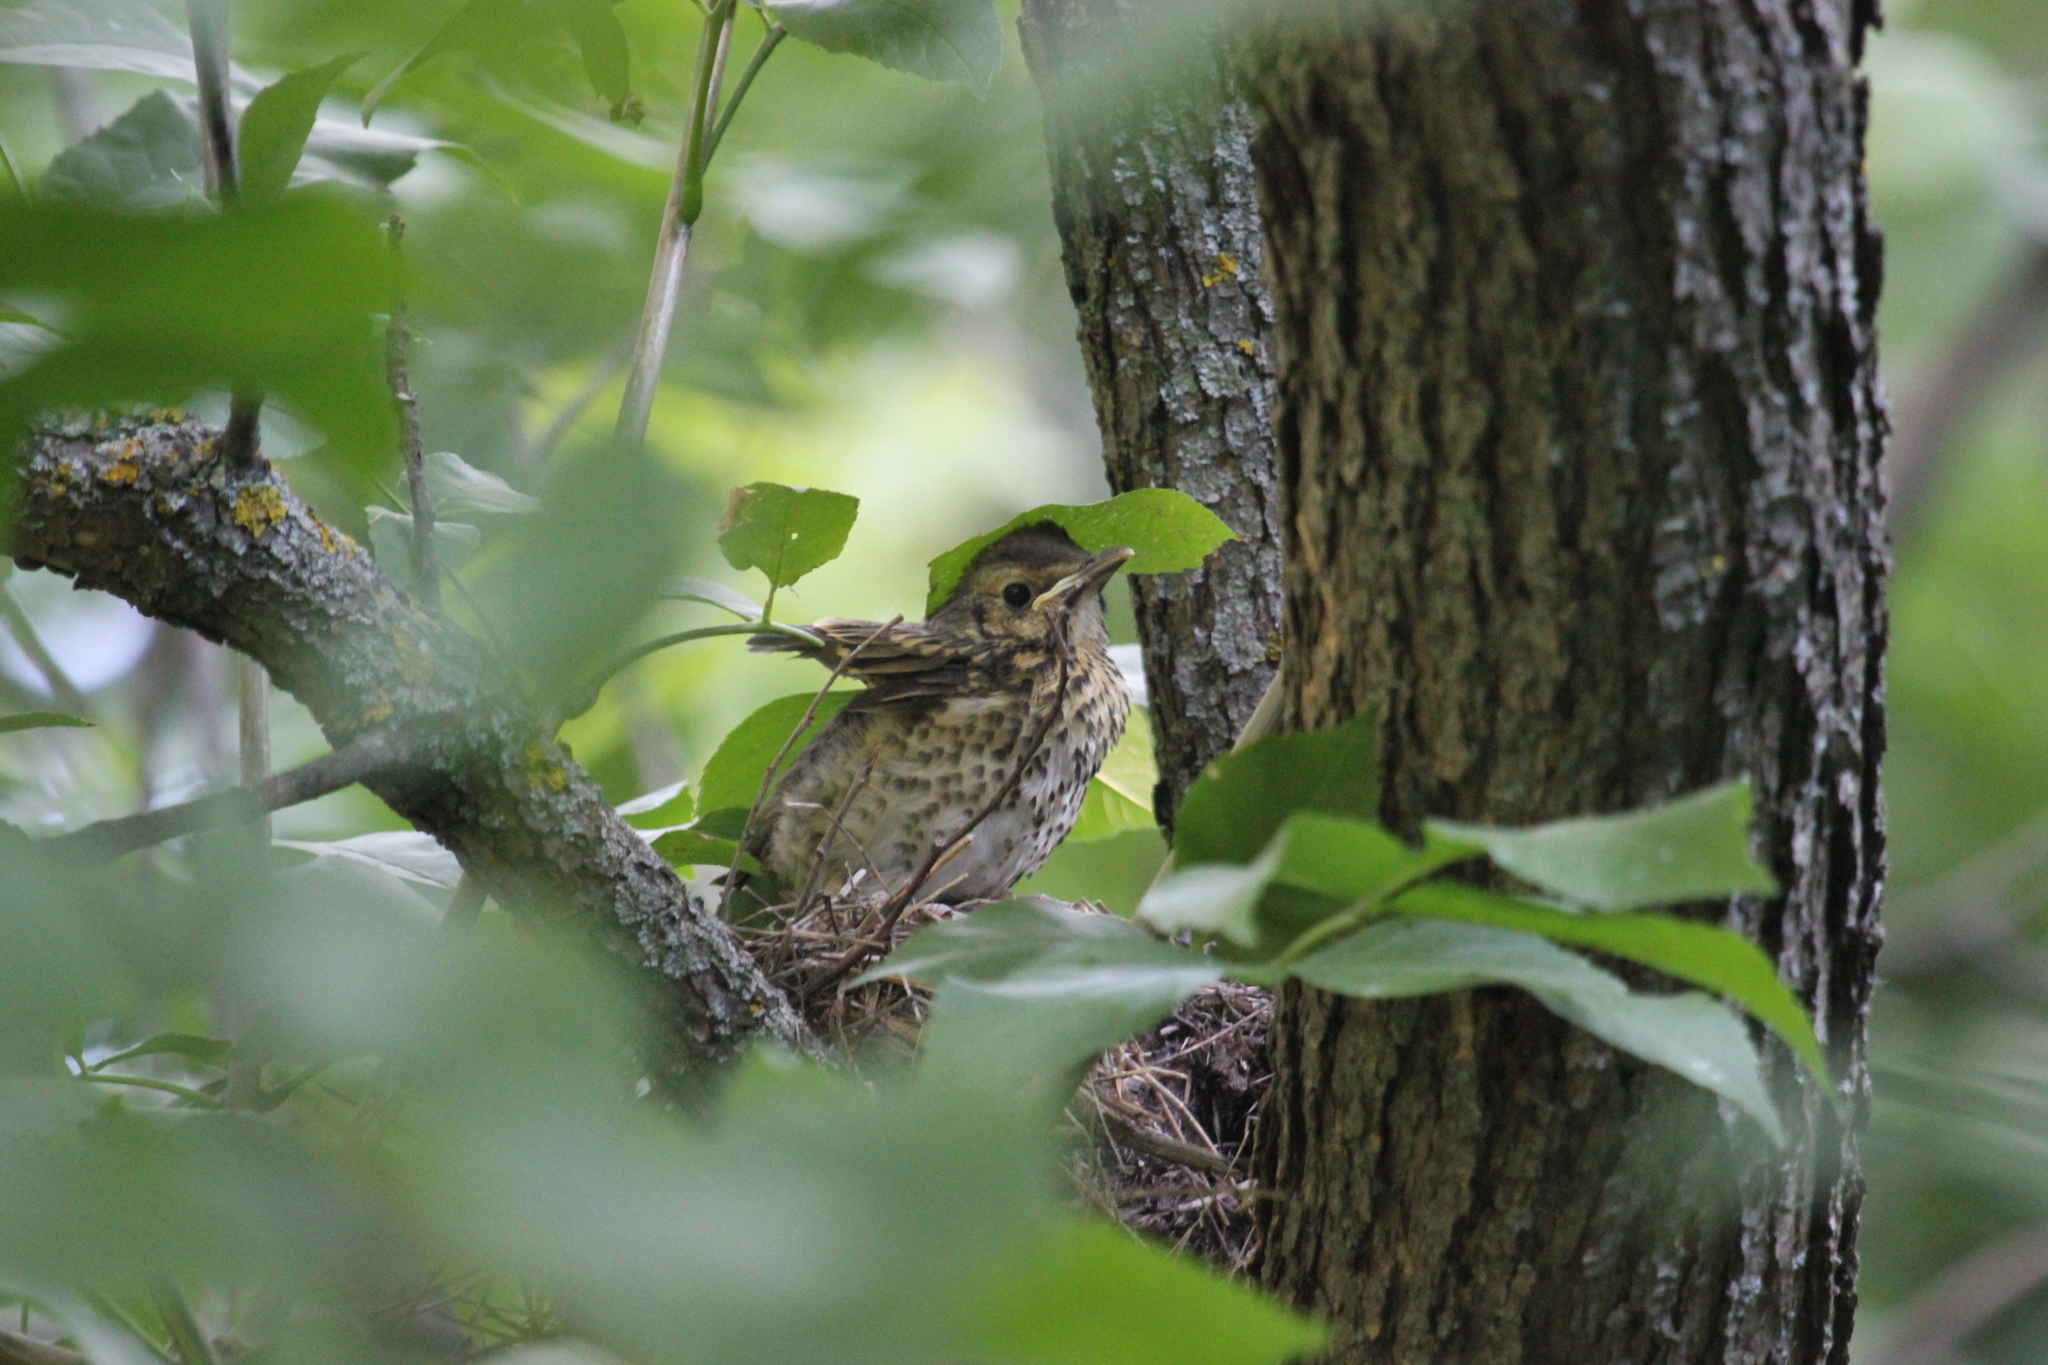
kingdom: Animalia
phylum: Chordata
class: Aves
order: Passeriformes
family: Turdidae
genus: Turdus
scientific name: Turdus philomelos
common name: Song thrush
